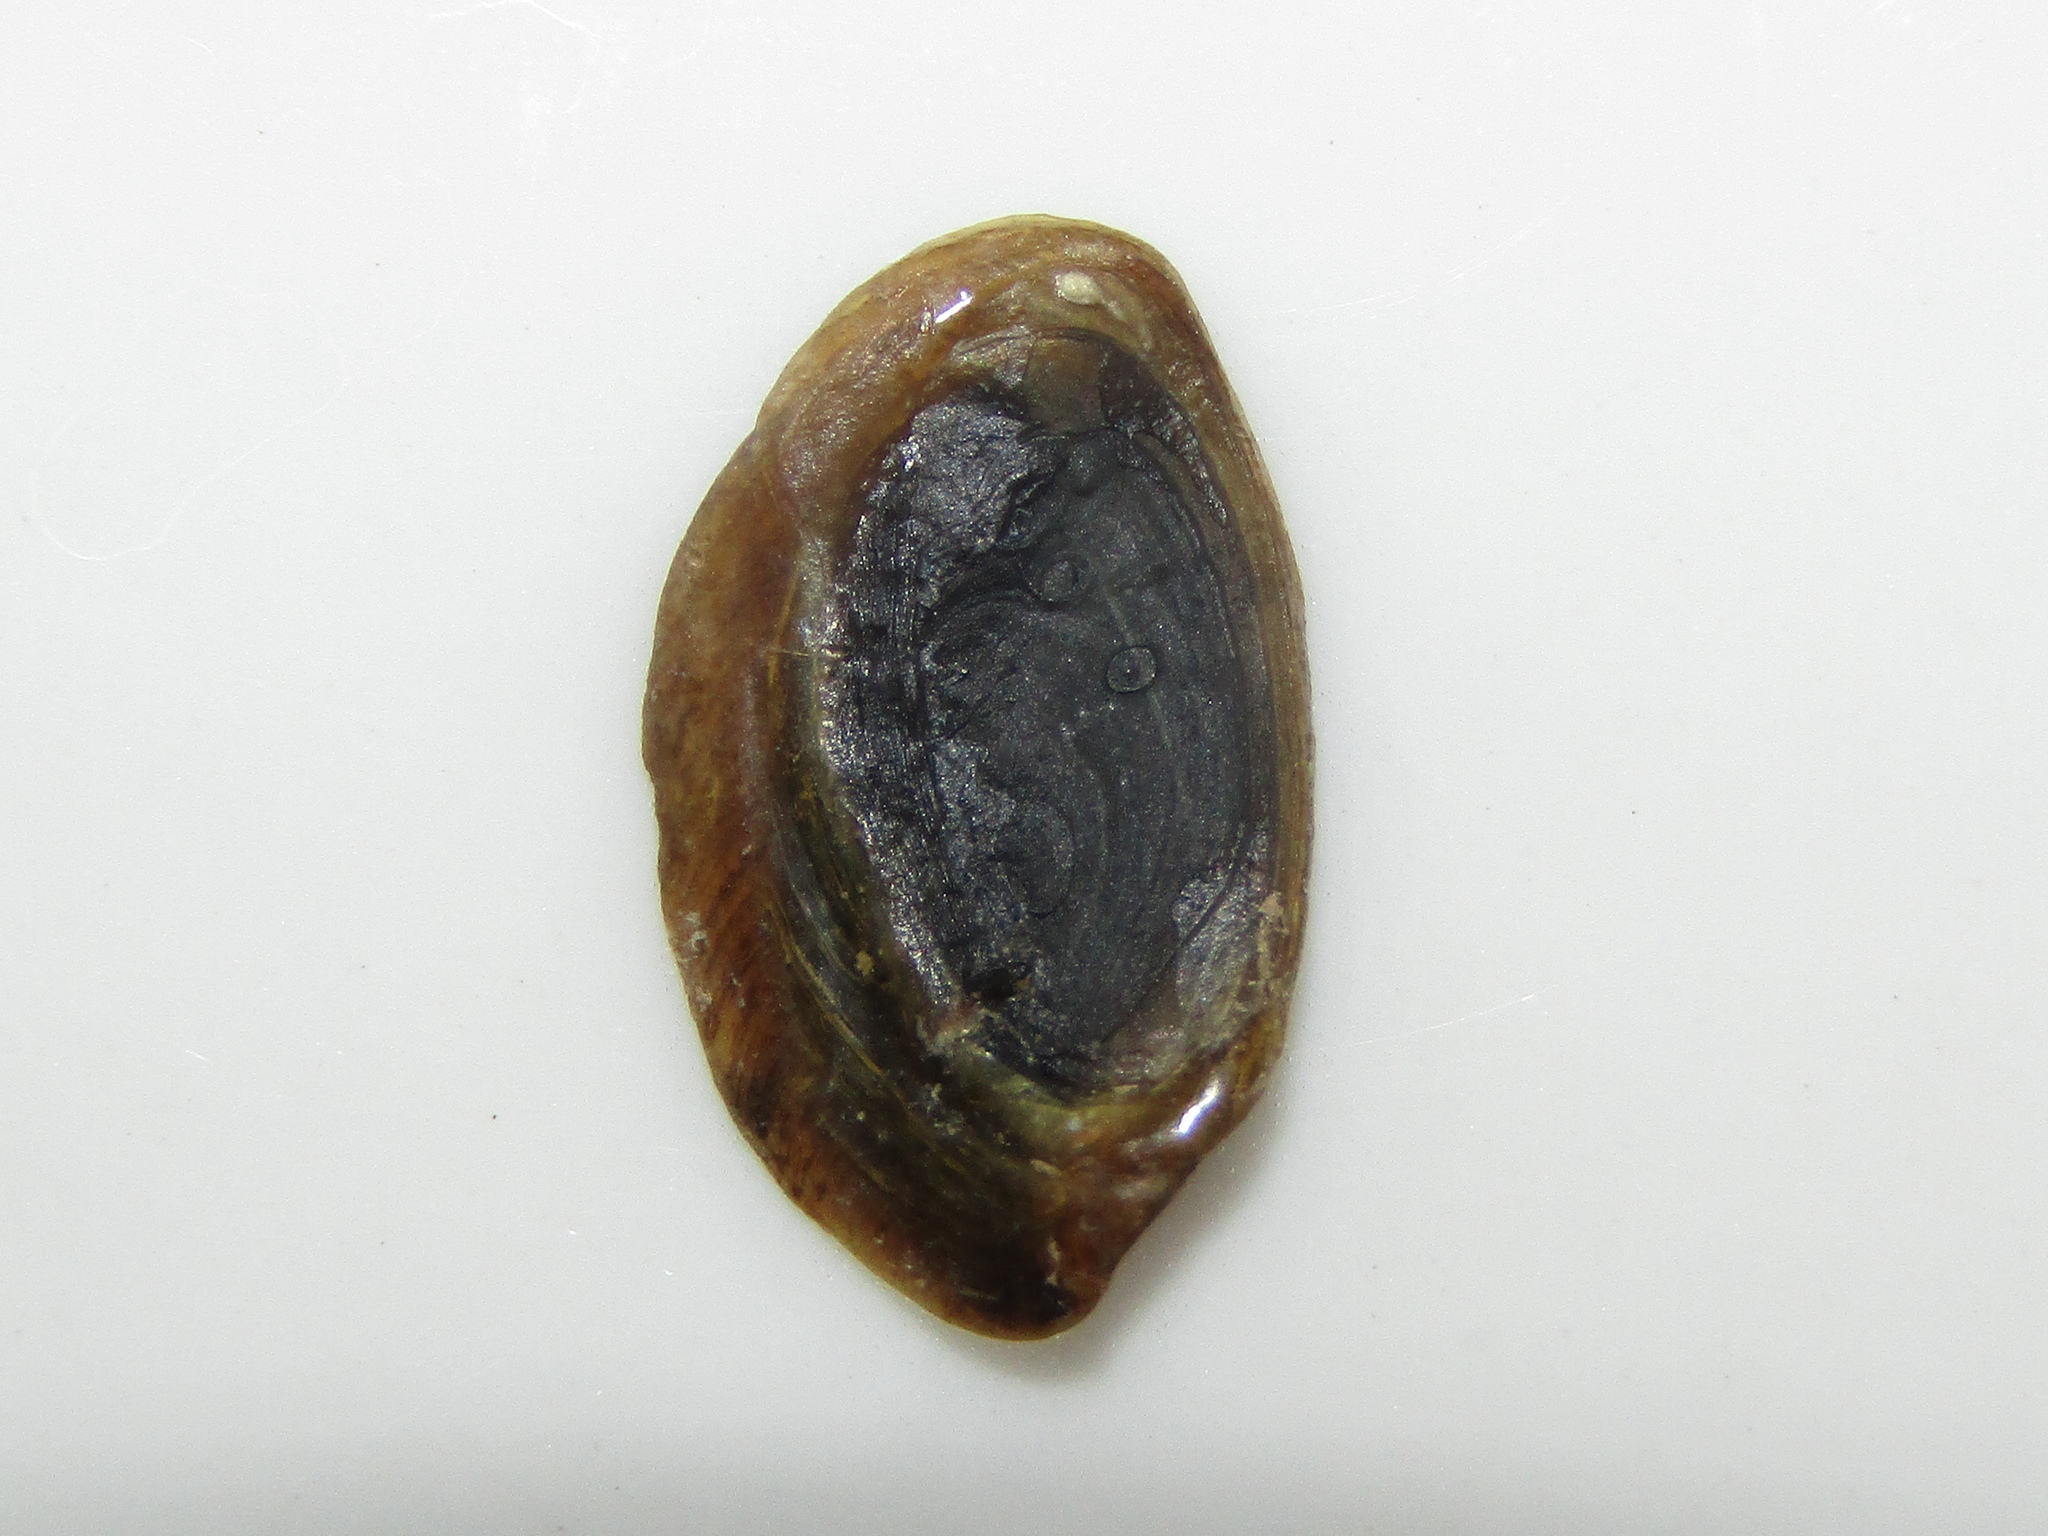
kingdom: Animalia
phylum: Mollusca
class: Gastropoda
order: Neogastropoda
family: Cominellidae
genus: Cominella
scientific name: Cominella maculosa
